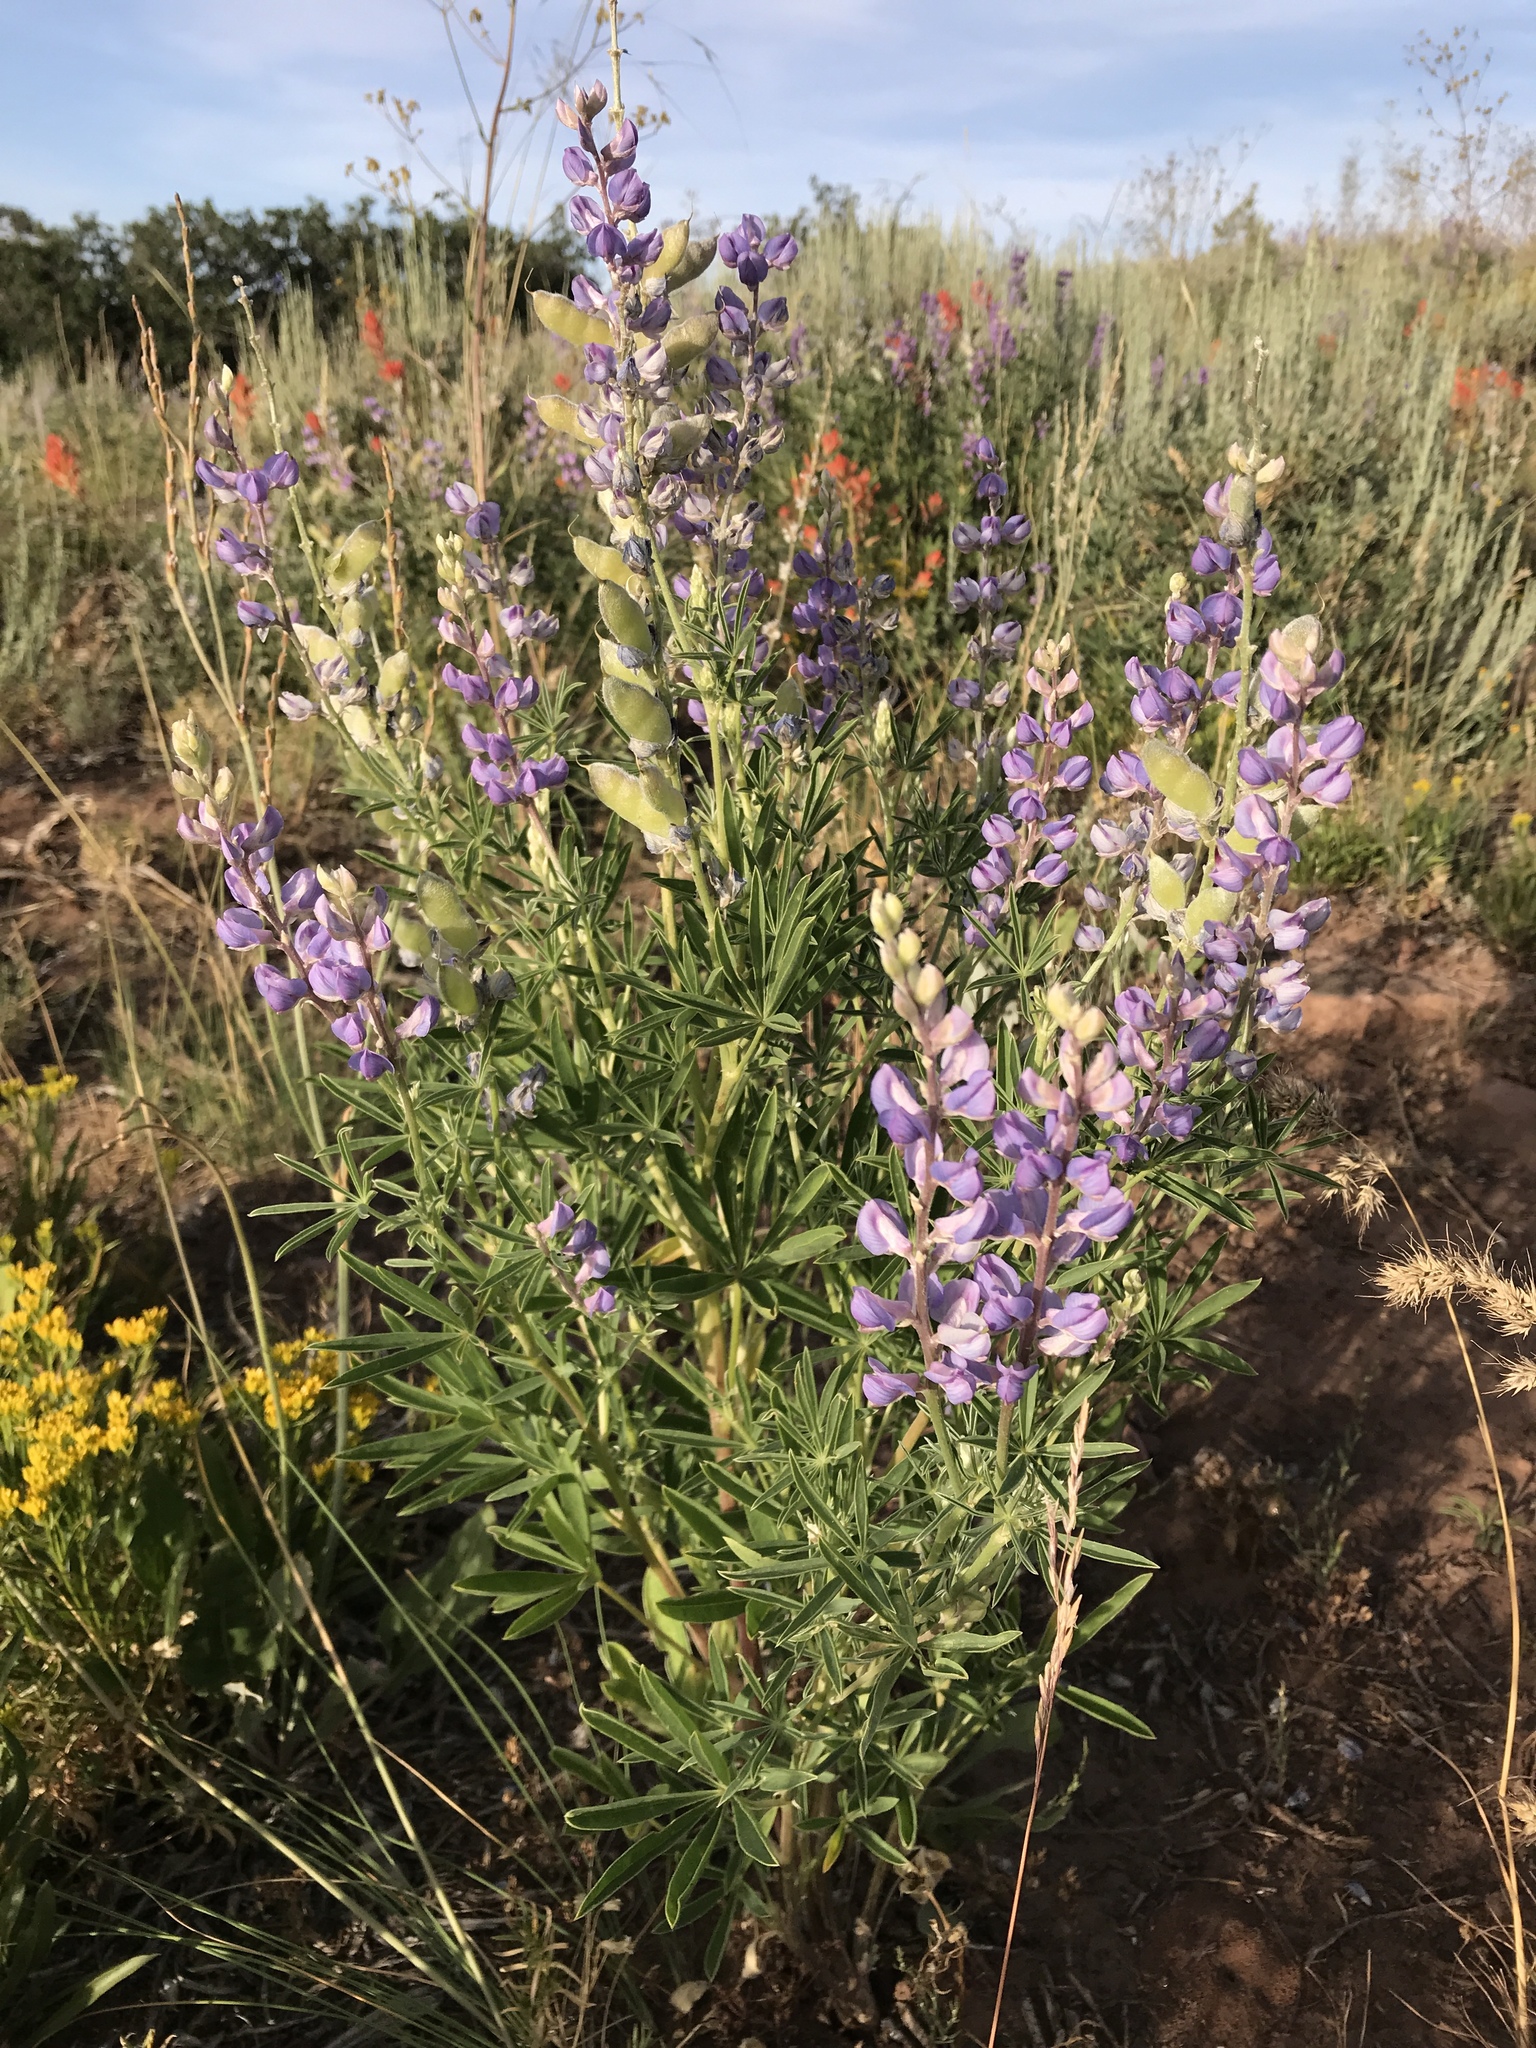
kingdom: Plantae
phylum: Tracheophyta
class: Magnoliopsida
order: Fabales
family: Fabaceae
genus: Lupinus
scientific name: Lupinus argenteus
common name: Silvery lupine
